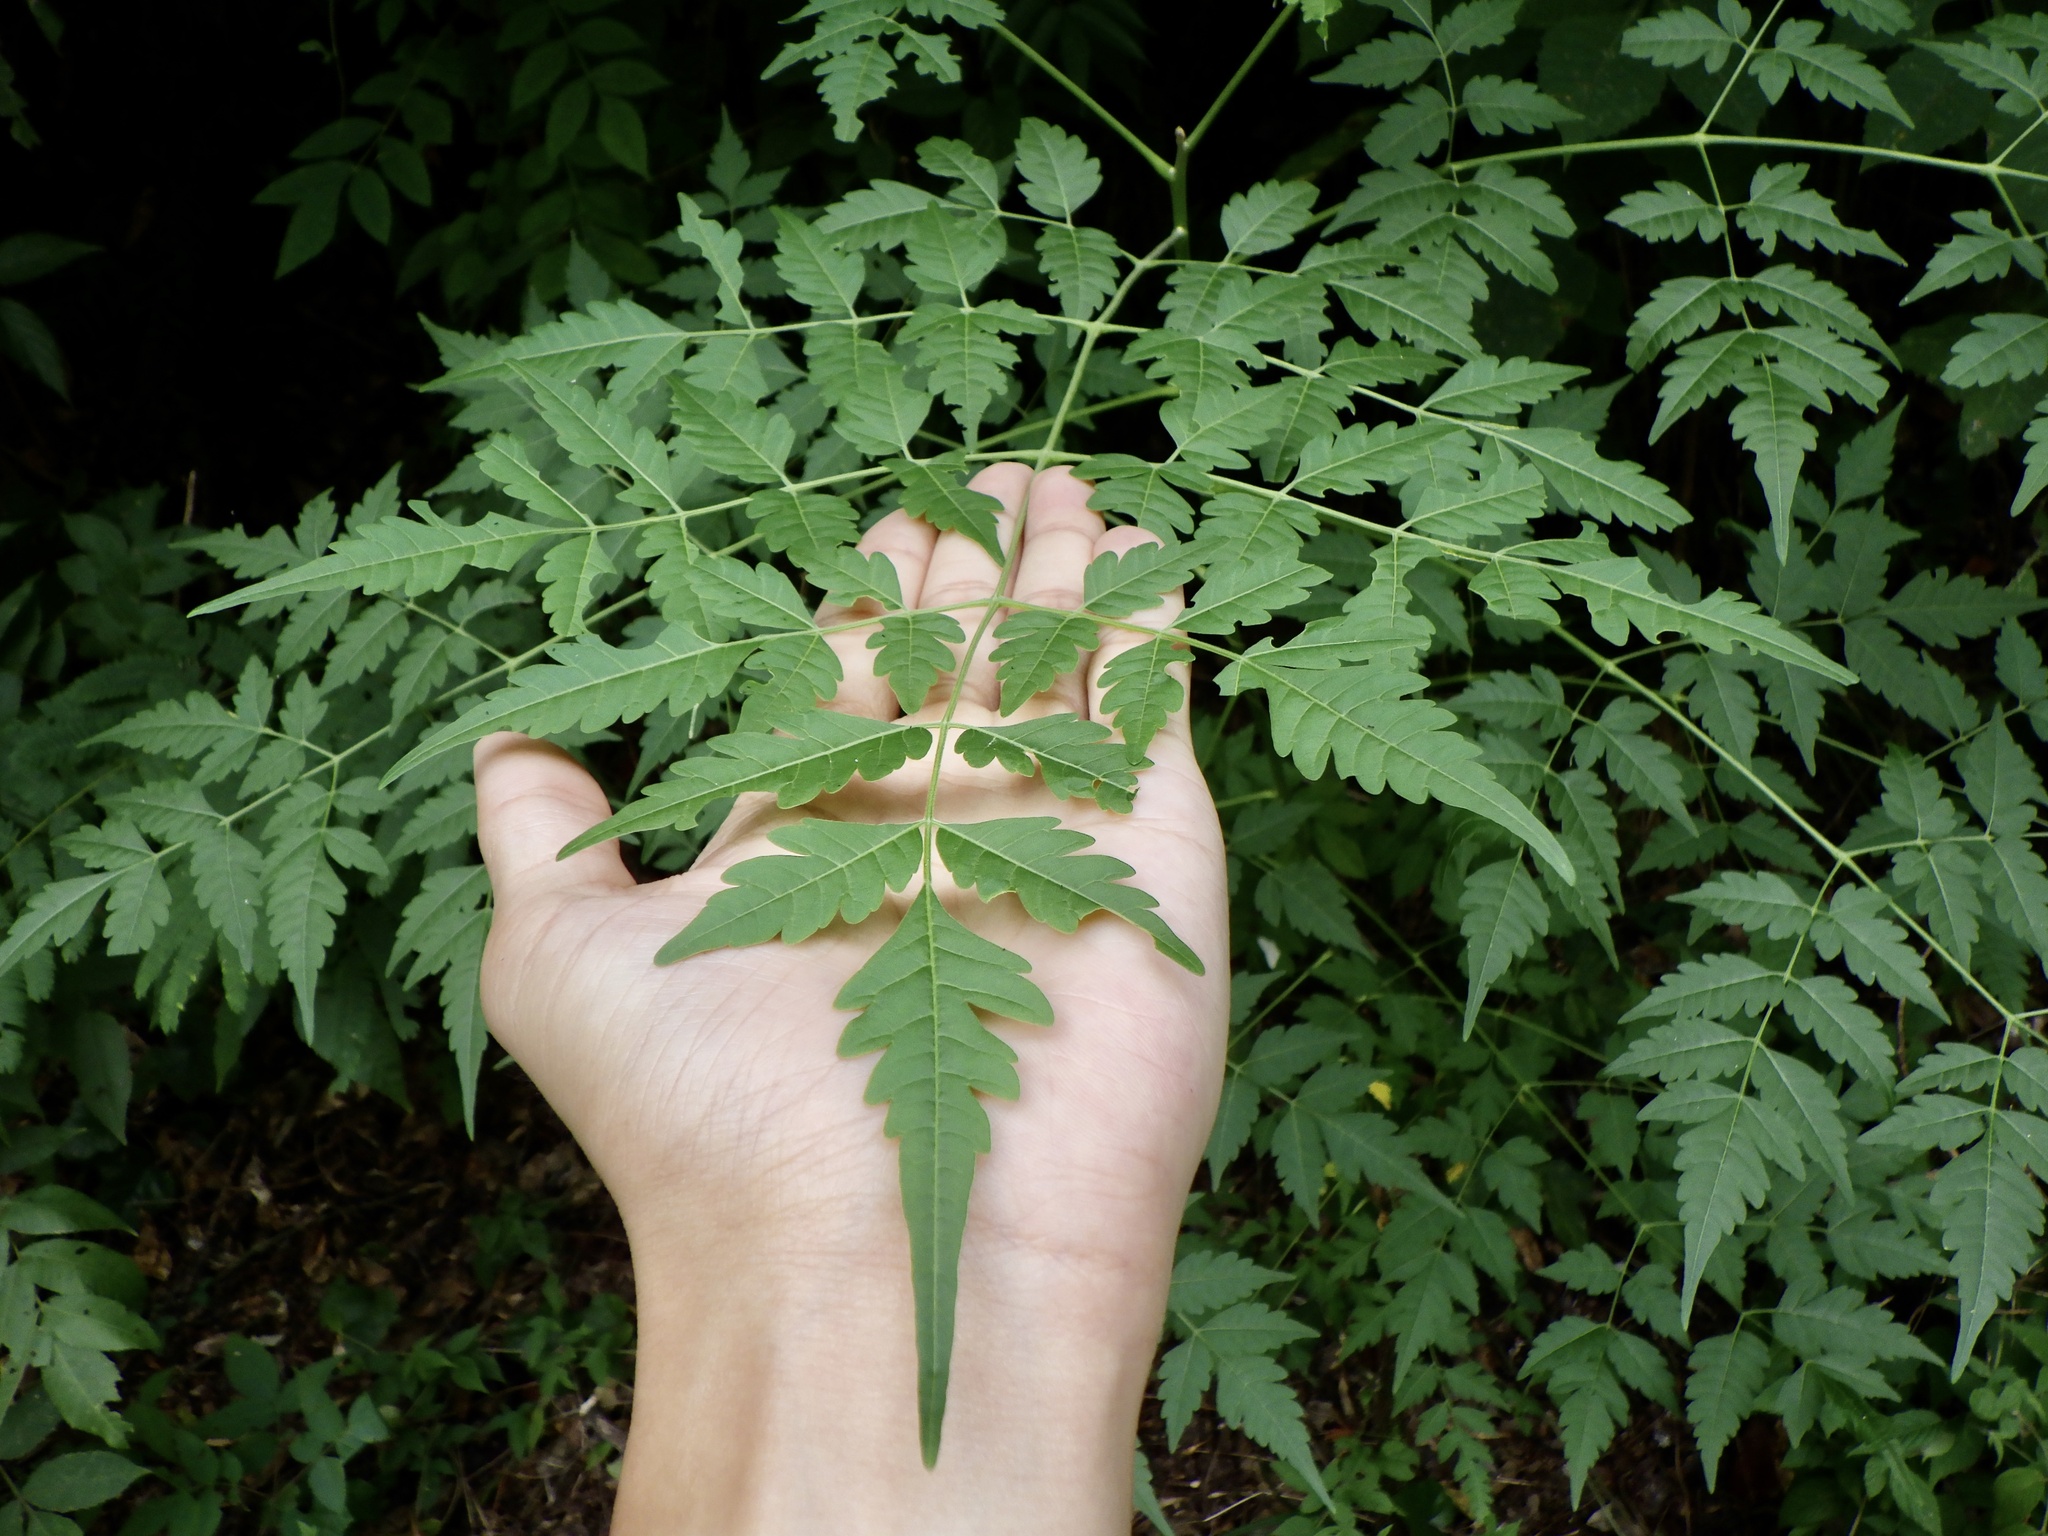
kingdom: Plantae
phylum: Tracheophyta
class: Magnoliopsida
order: Sapindales
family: Meliaceae
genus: Melia
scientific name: Melia azedarach
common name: Chinaberrytree
